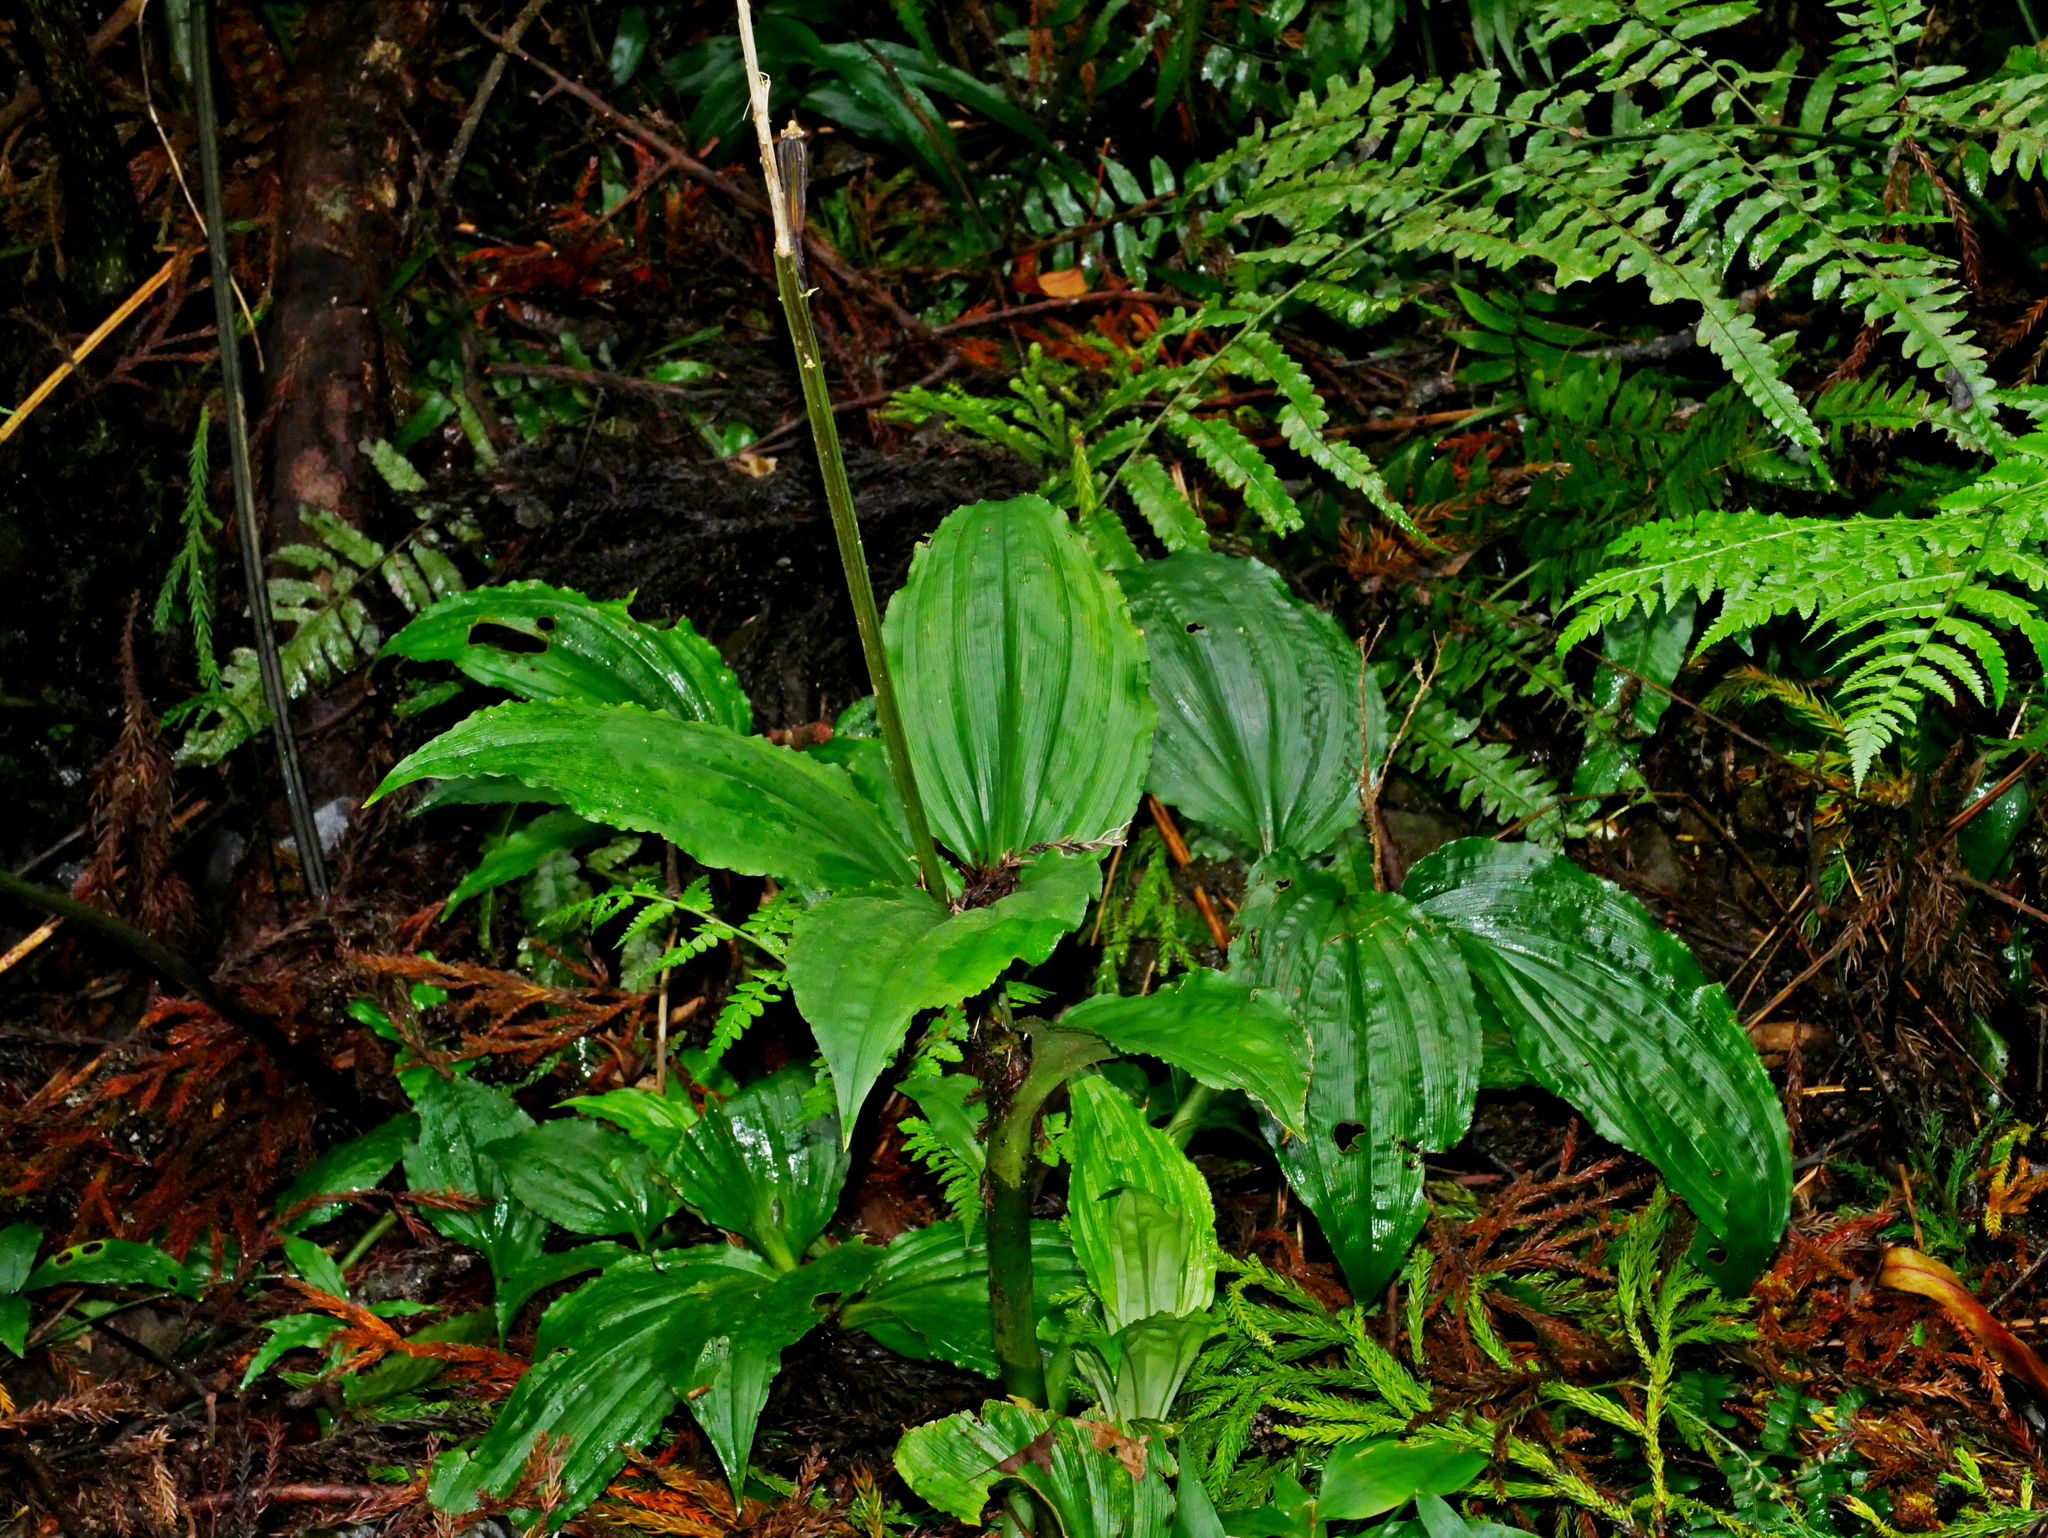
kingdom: Plantae
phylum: Tracheophyta
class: Liliopsida
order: Asparagales
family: Orchidaceae
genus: Liparis
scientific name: Liparis gigantea
